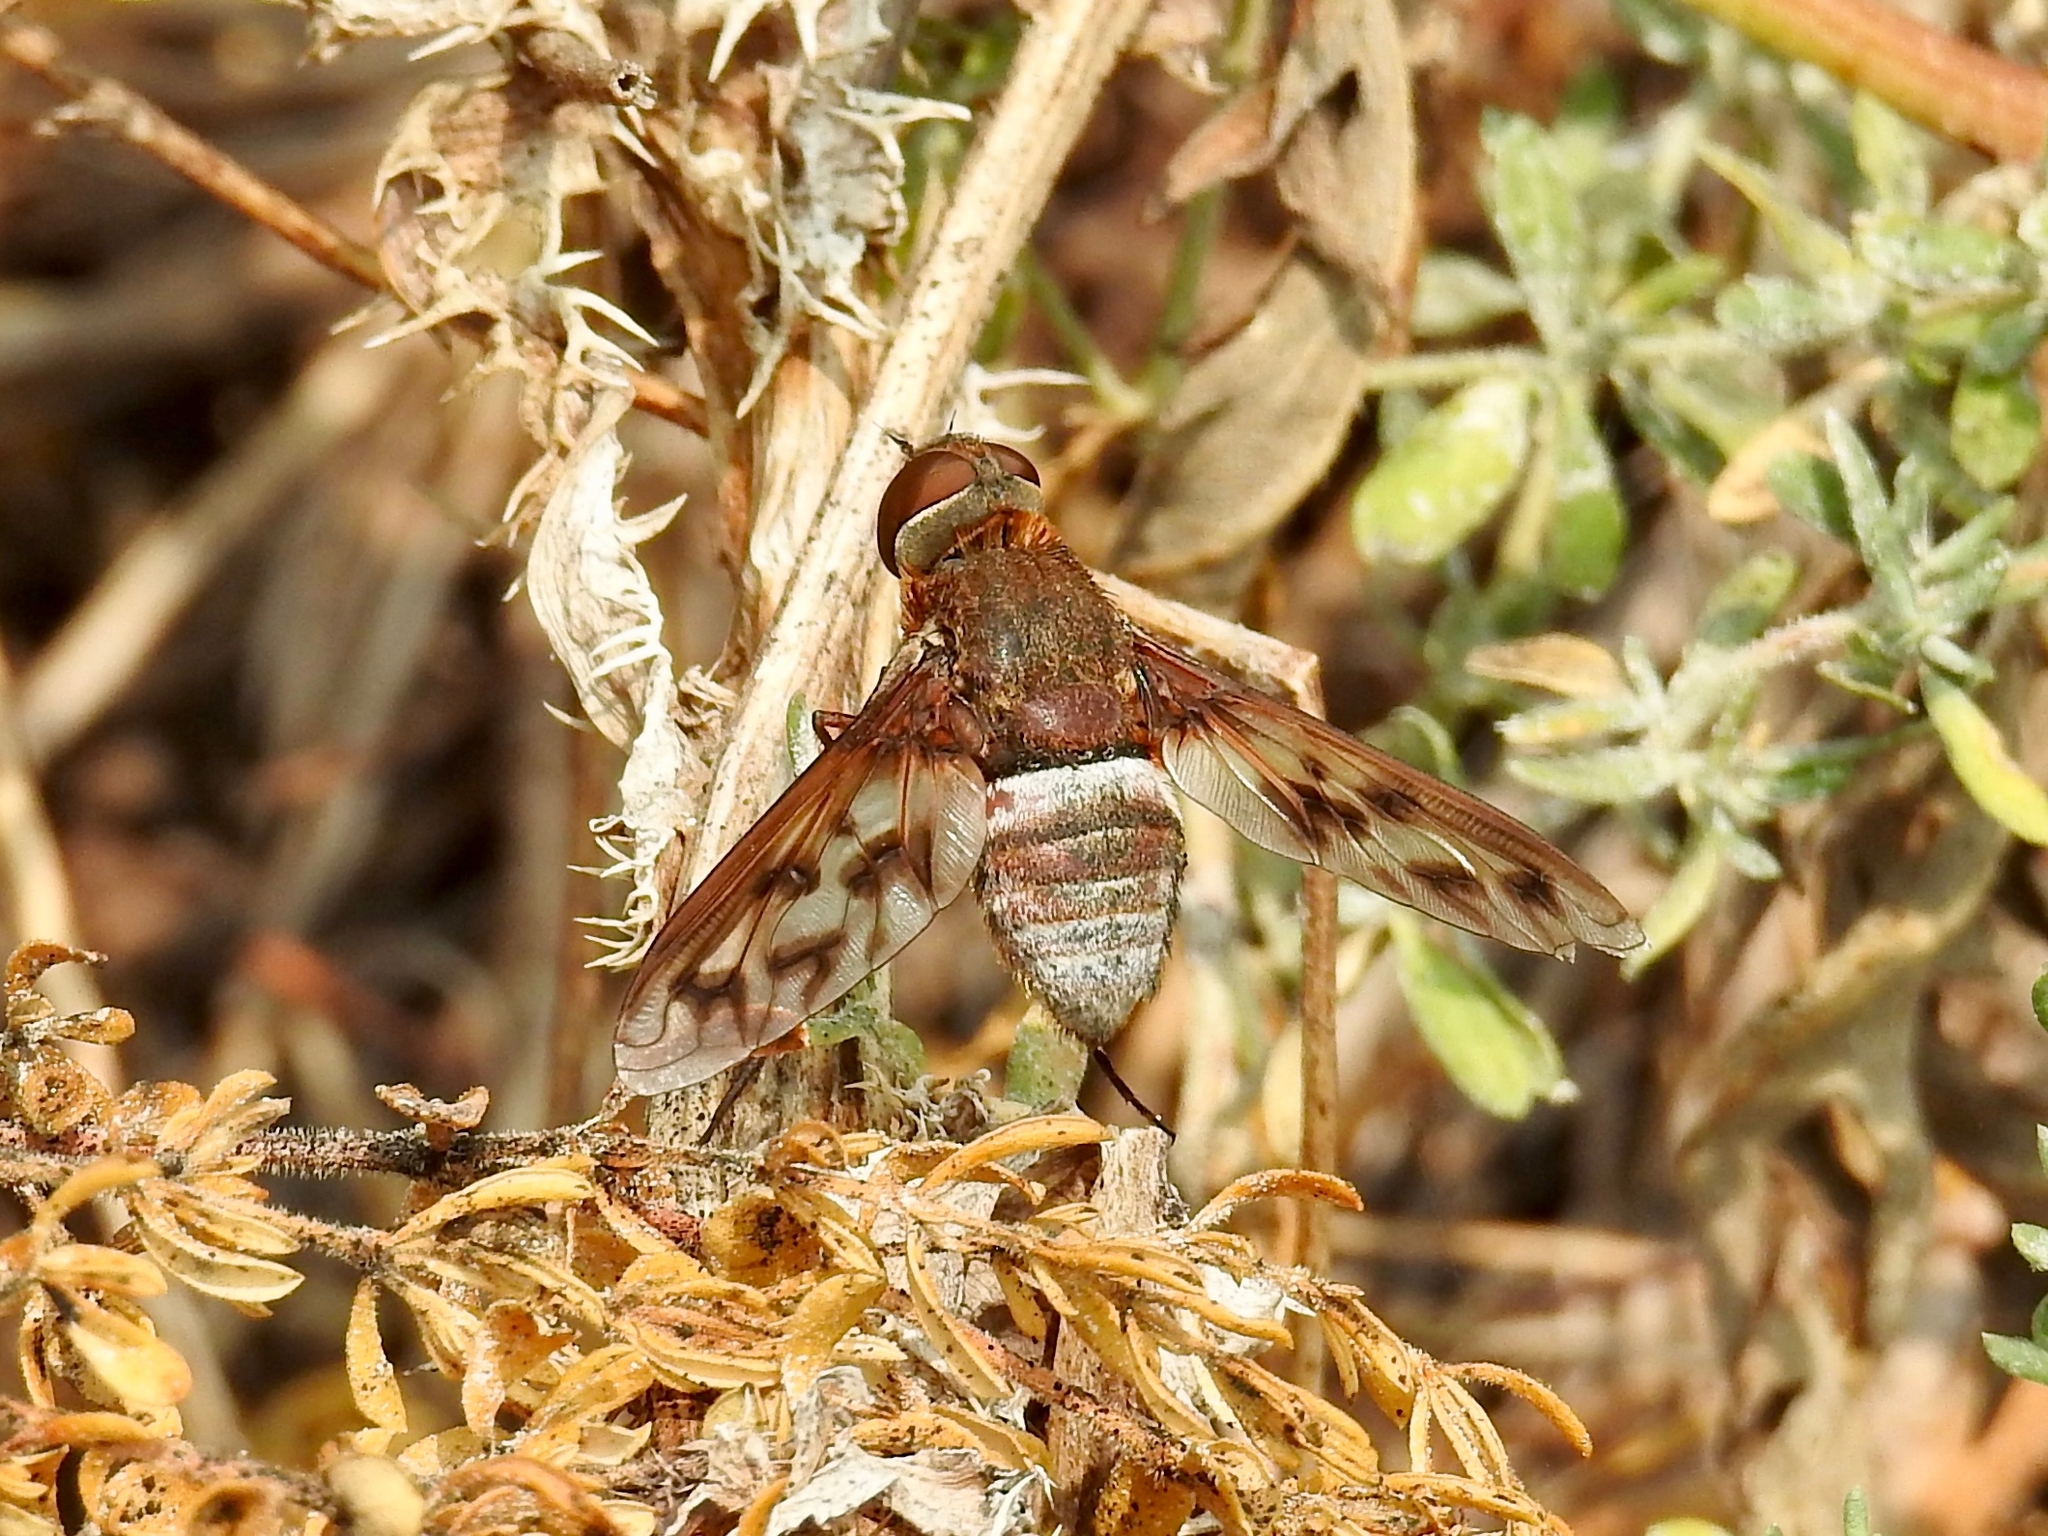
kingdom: Animalia
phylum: Arthropoda
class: Insecta
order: Diptera
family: Bombyliidae
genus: Nyia
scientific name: Nyia gazophylax
